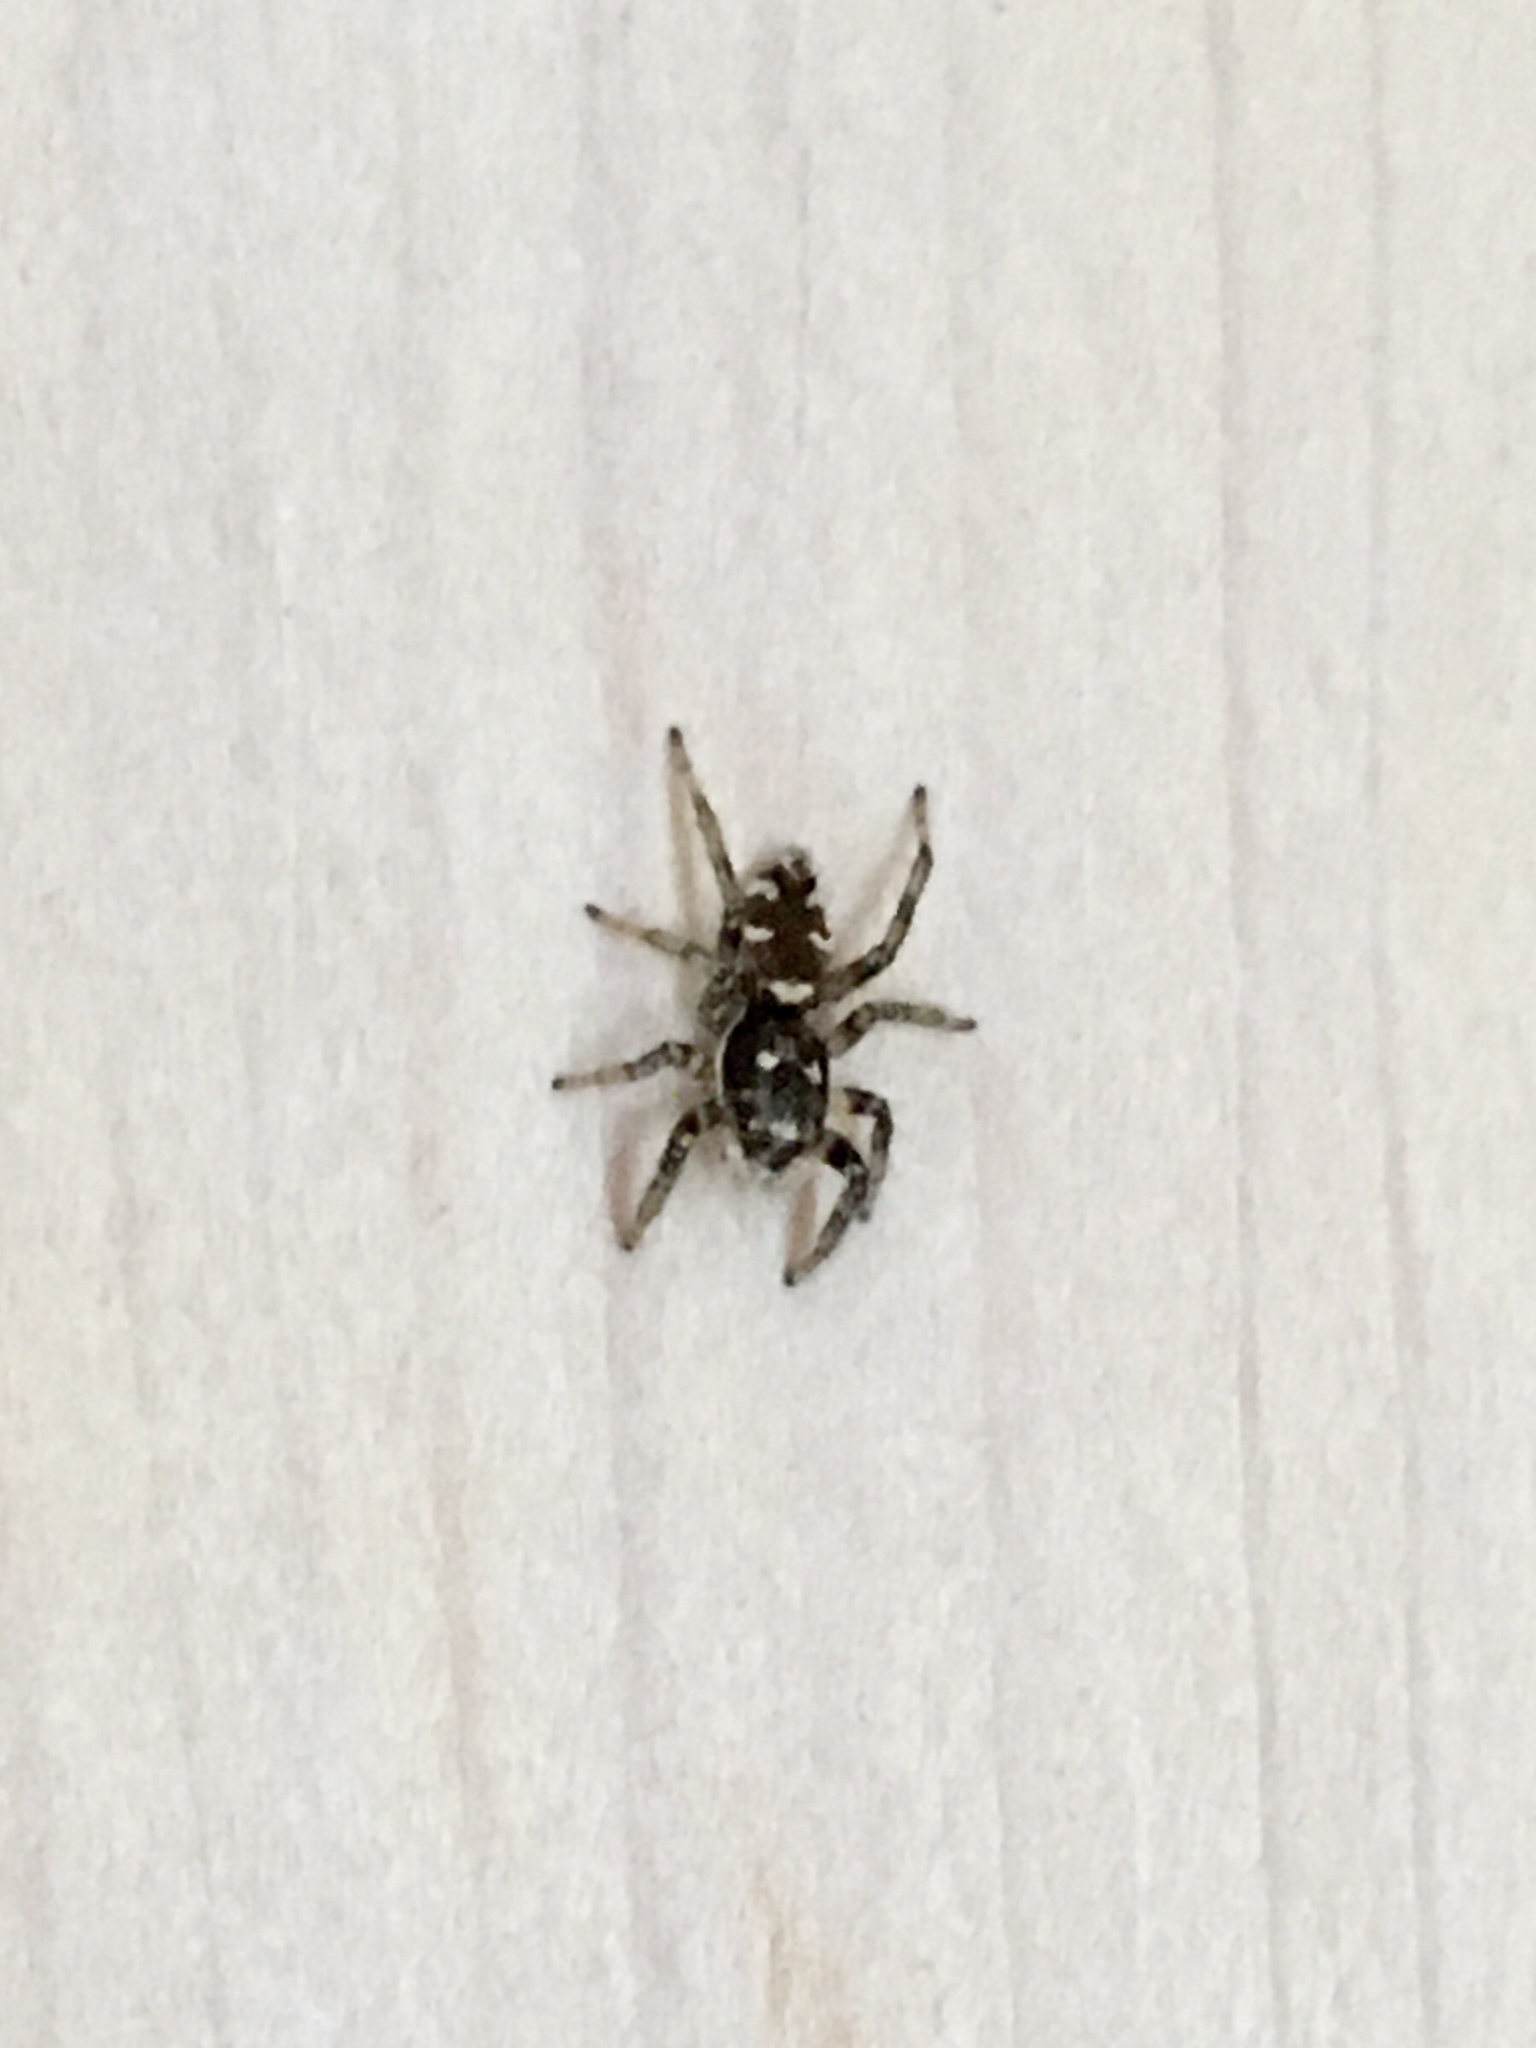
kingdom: Animalia
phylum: Arthropoda
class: Arachnida
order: Araneae
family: Salticidae
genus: Salticus
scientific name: Salticus scenicus
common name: Zebra jumper
